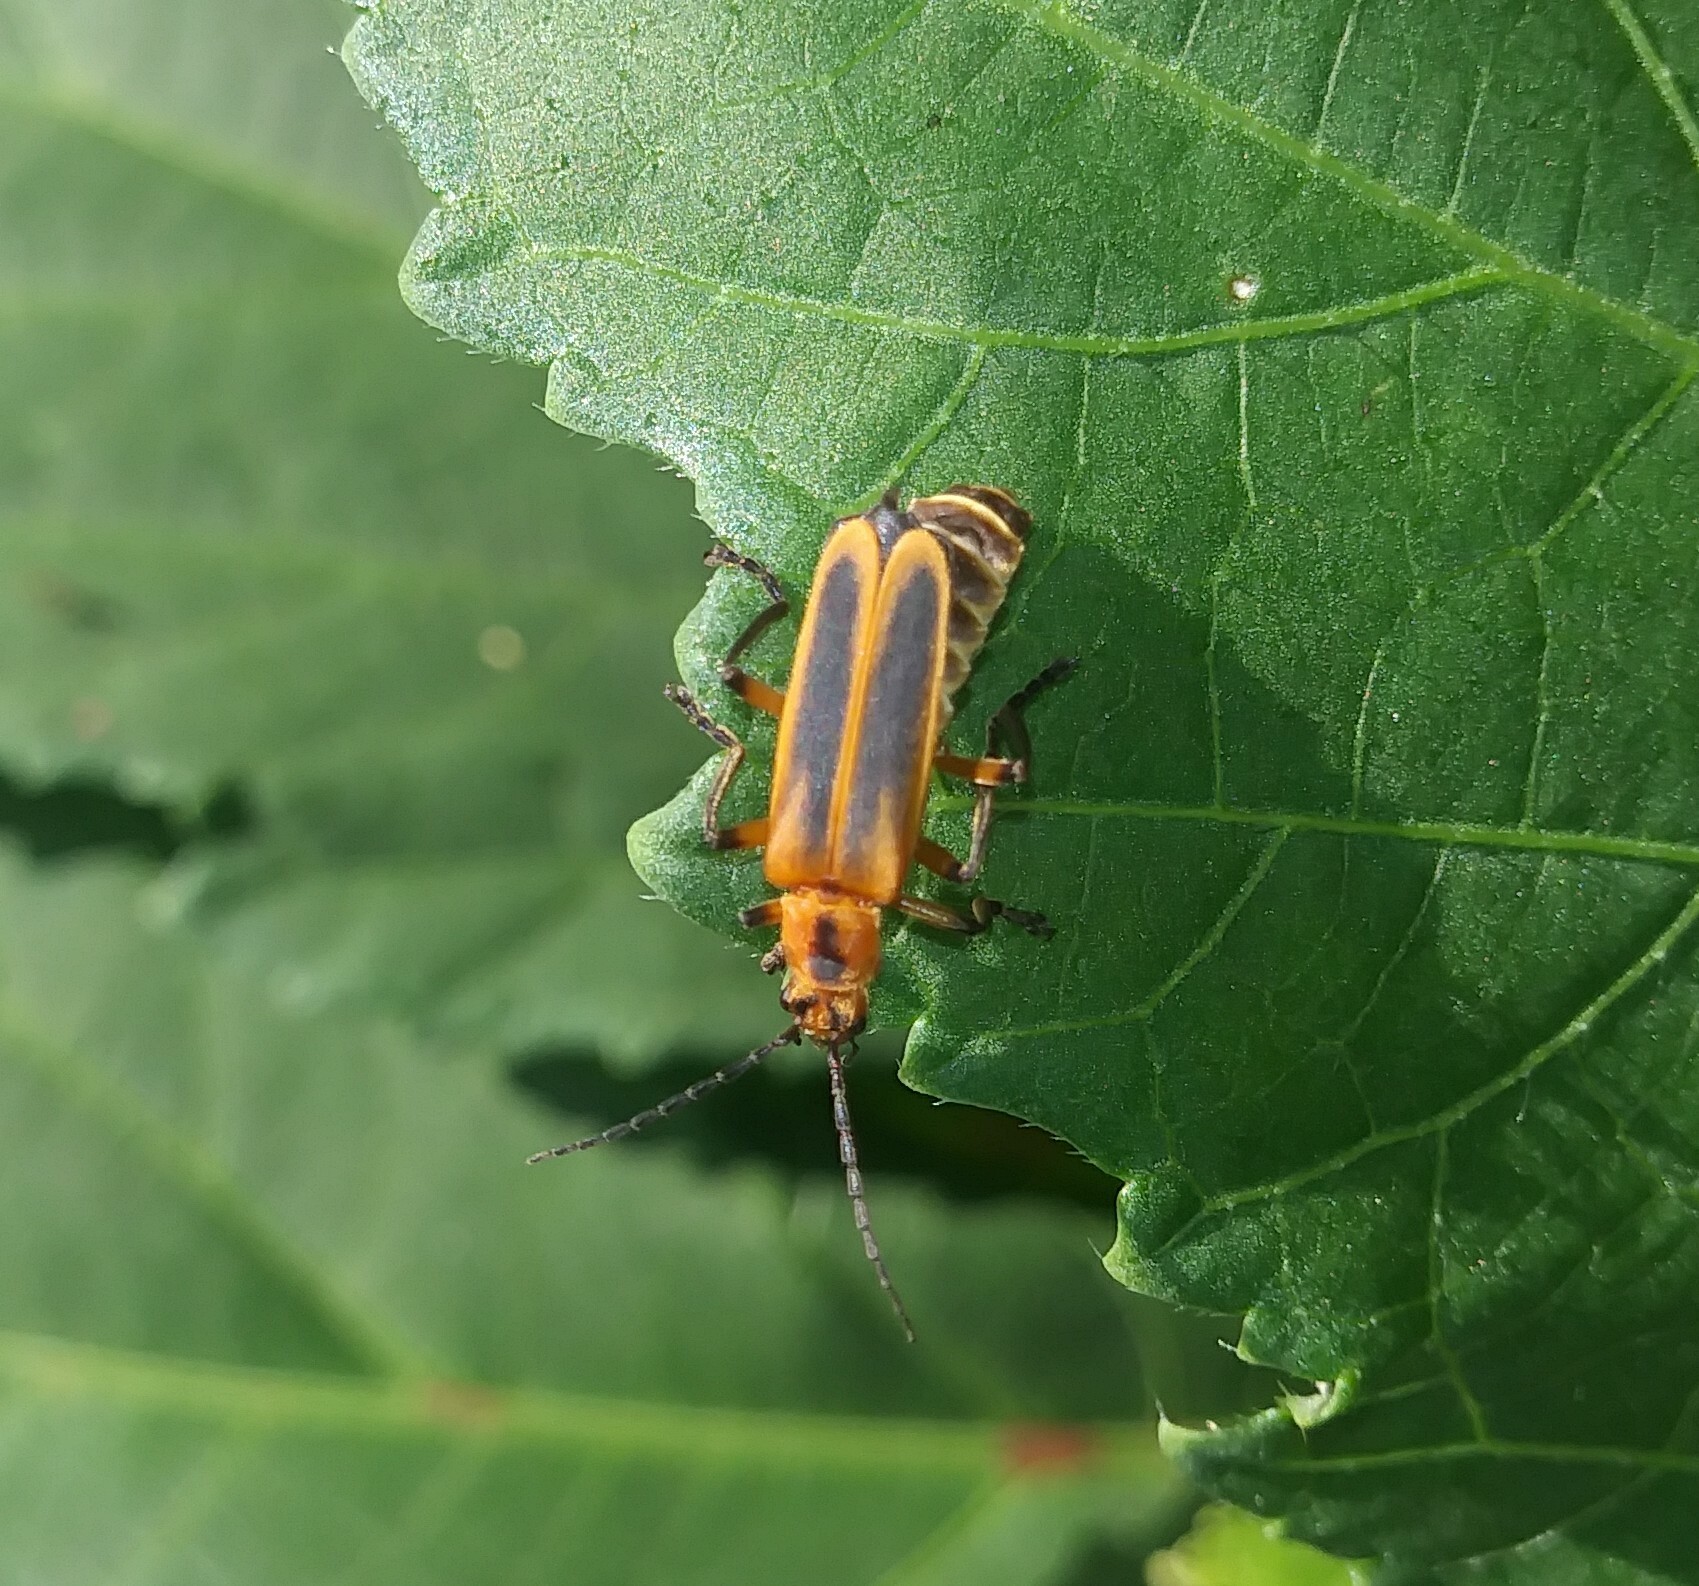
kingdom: Animalia
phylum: Arthropoda
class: Insecta
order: Coleoptera
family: Cantharidae
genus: Chauliognathus
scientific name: Chauliognathus marginatus
